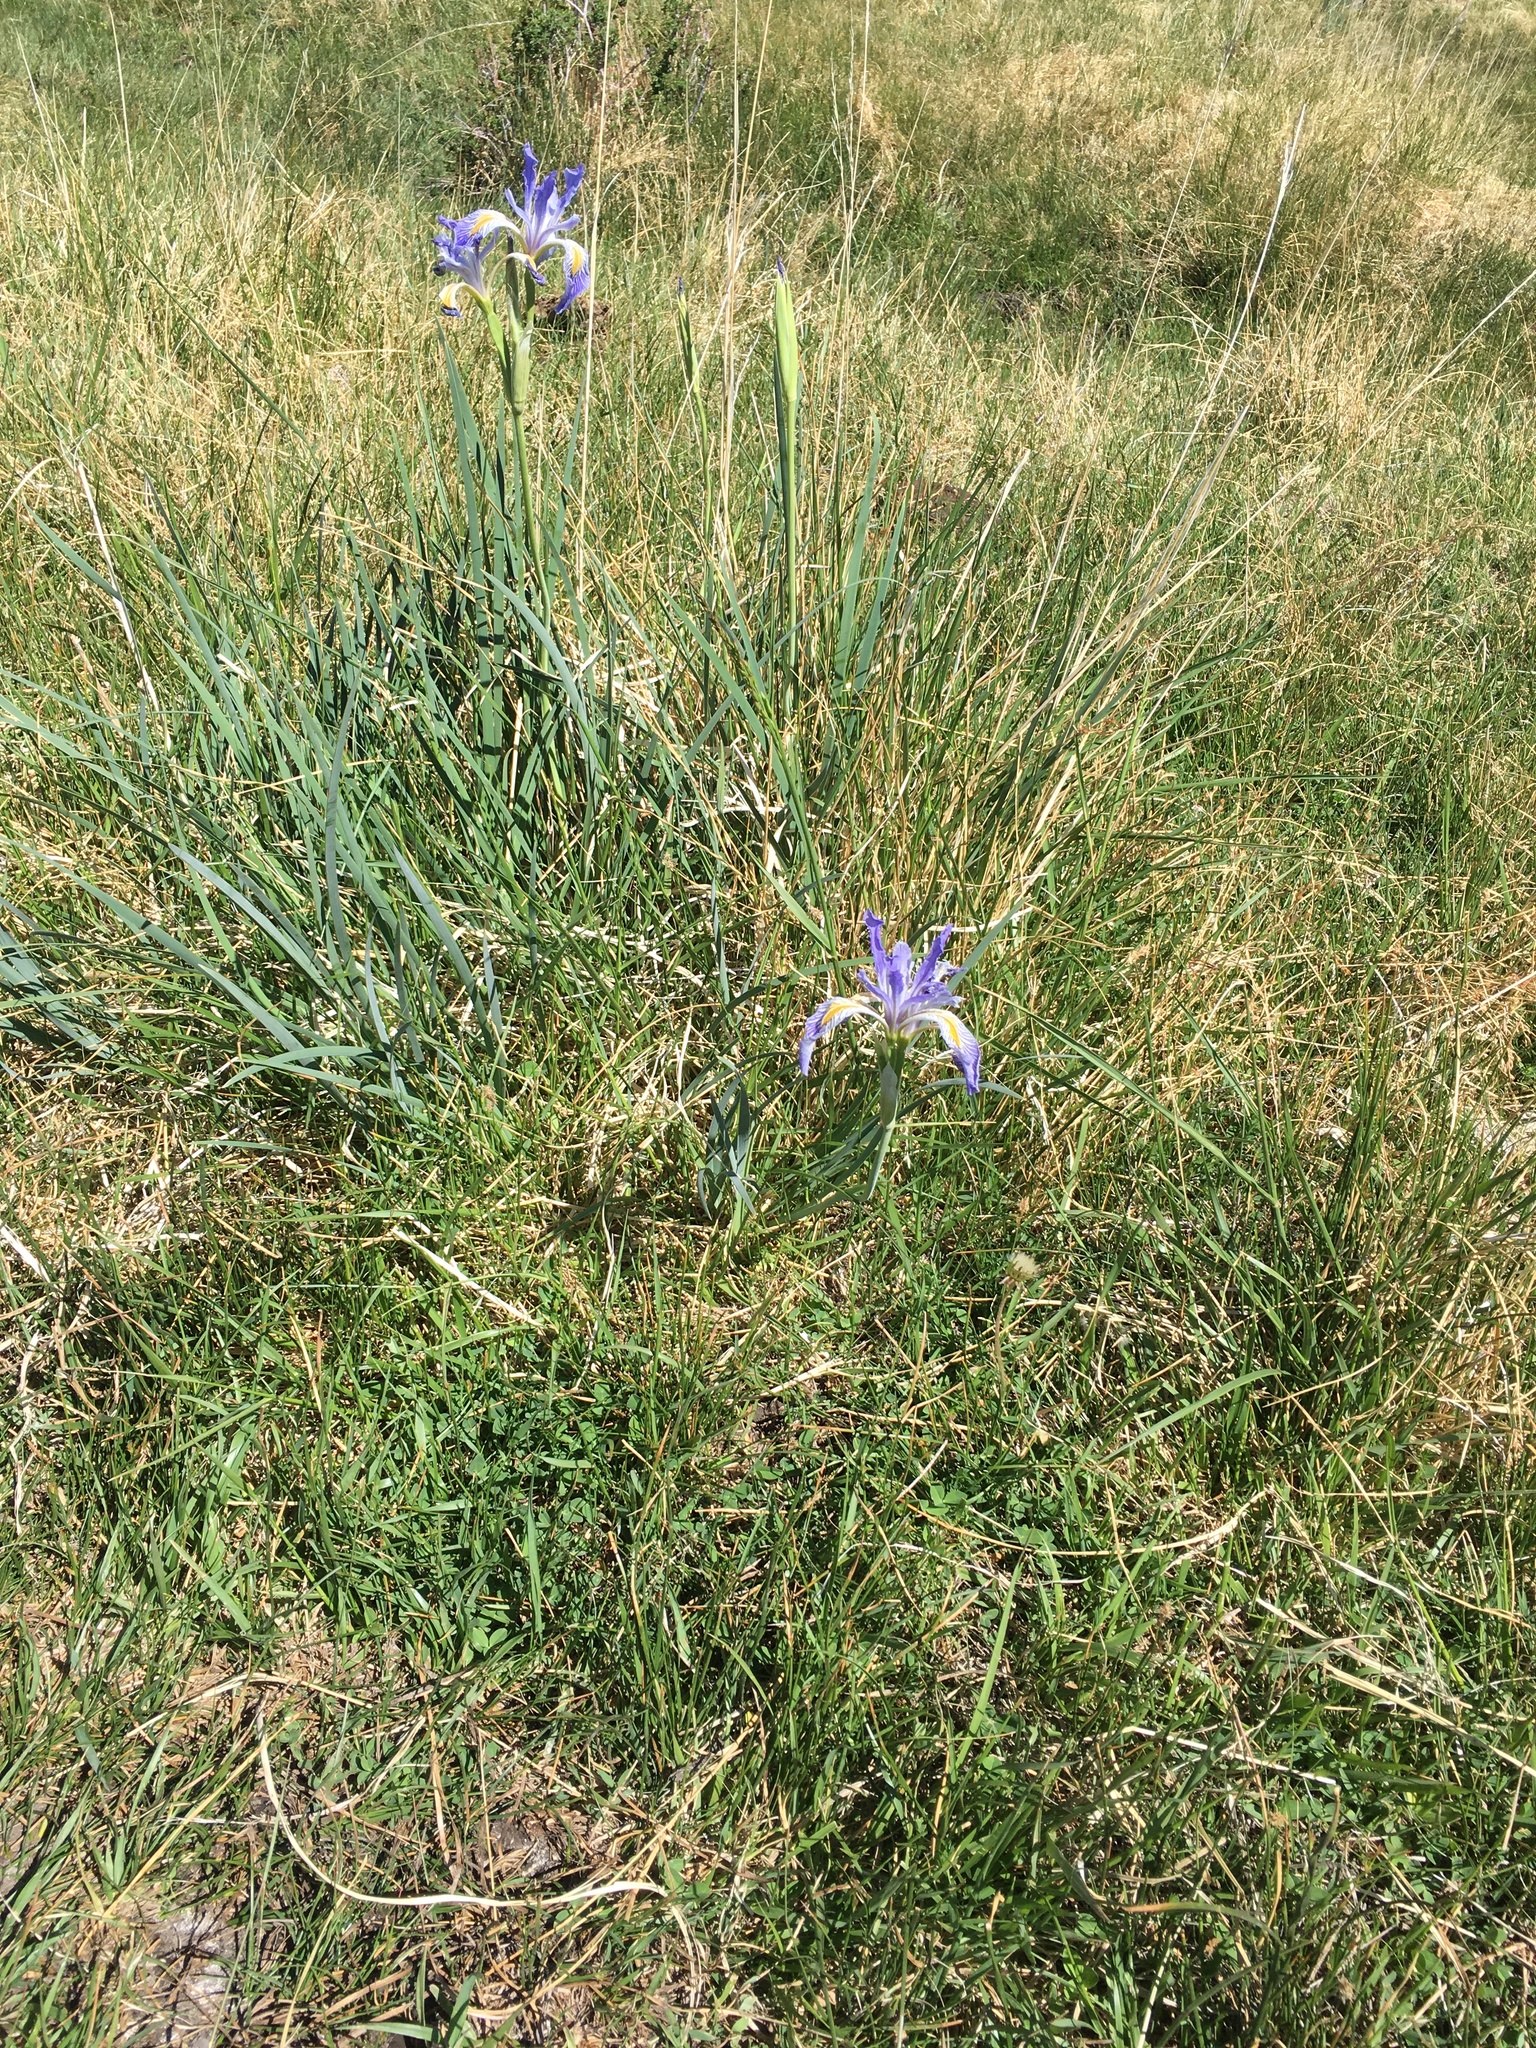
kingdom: Plantae
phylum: Tracheophyta
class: Liliopsida
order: Asparagales
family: Iridaceae
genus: Iris
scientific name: Iris missouriensis
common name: Rocky mountain iris
